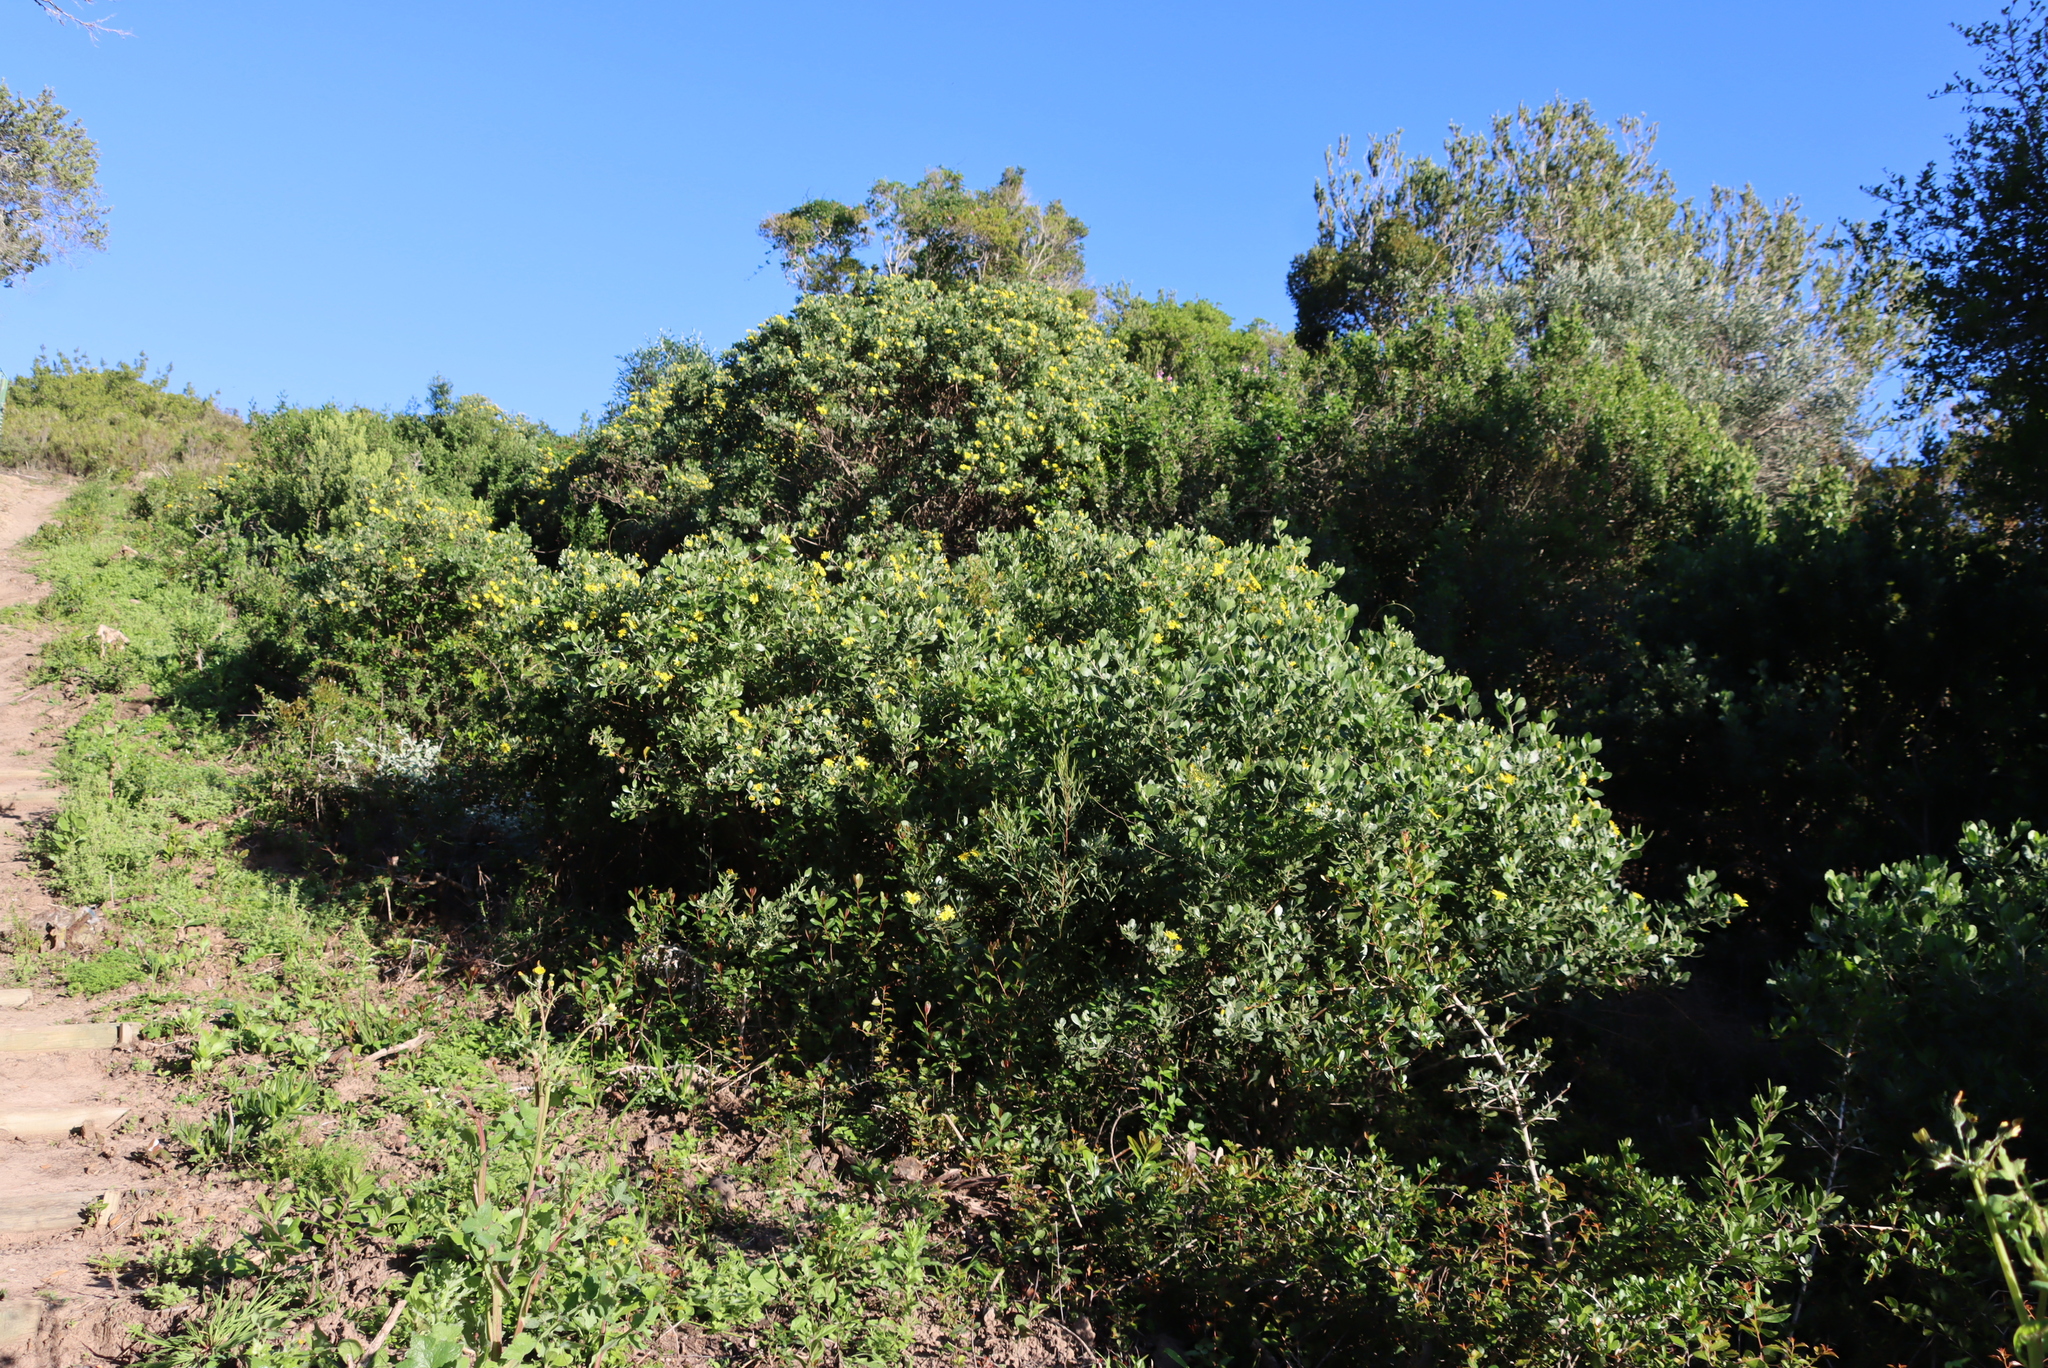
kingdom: Plantae
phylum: Tracheophyta
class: Magnoliopsida
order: Asterales
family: Asteraceae
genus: Osteospermum
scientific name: Osteospermum moniliferum
